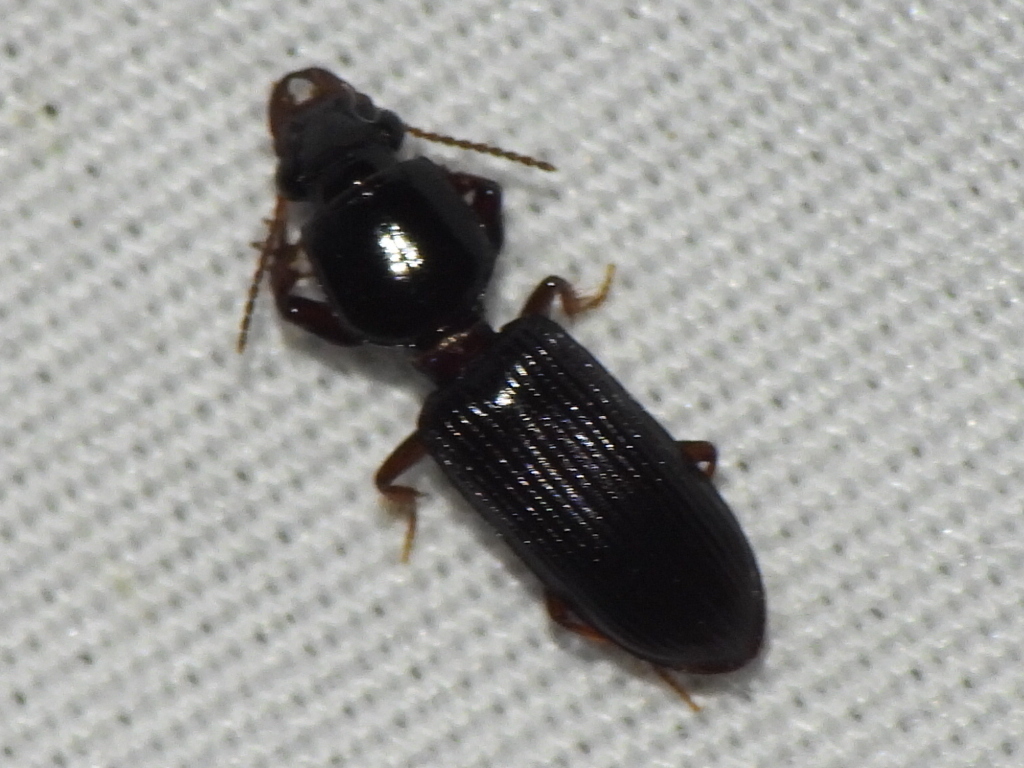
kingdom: Animalia
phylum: Arthropoda
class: Insecta
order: Coleoptera
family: Carabidae
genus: Semiclivina
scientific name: Semiclivina dentipes
